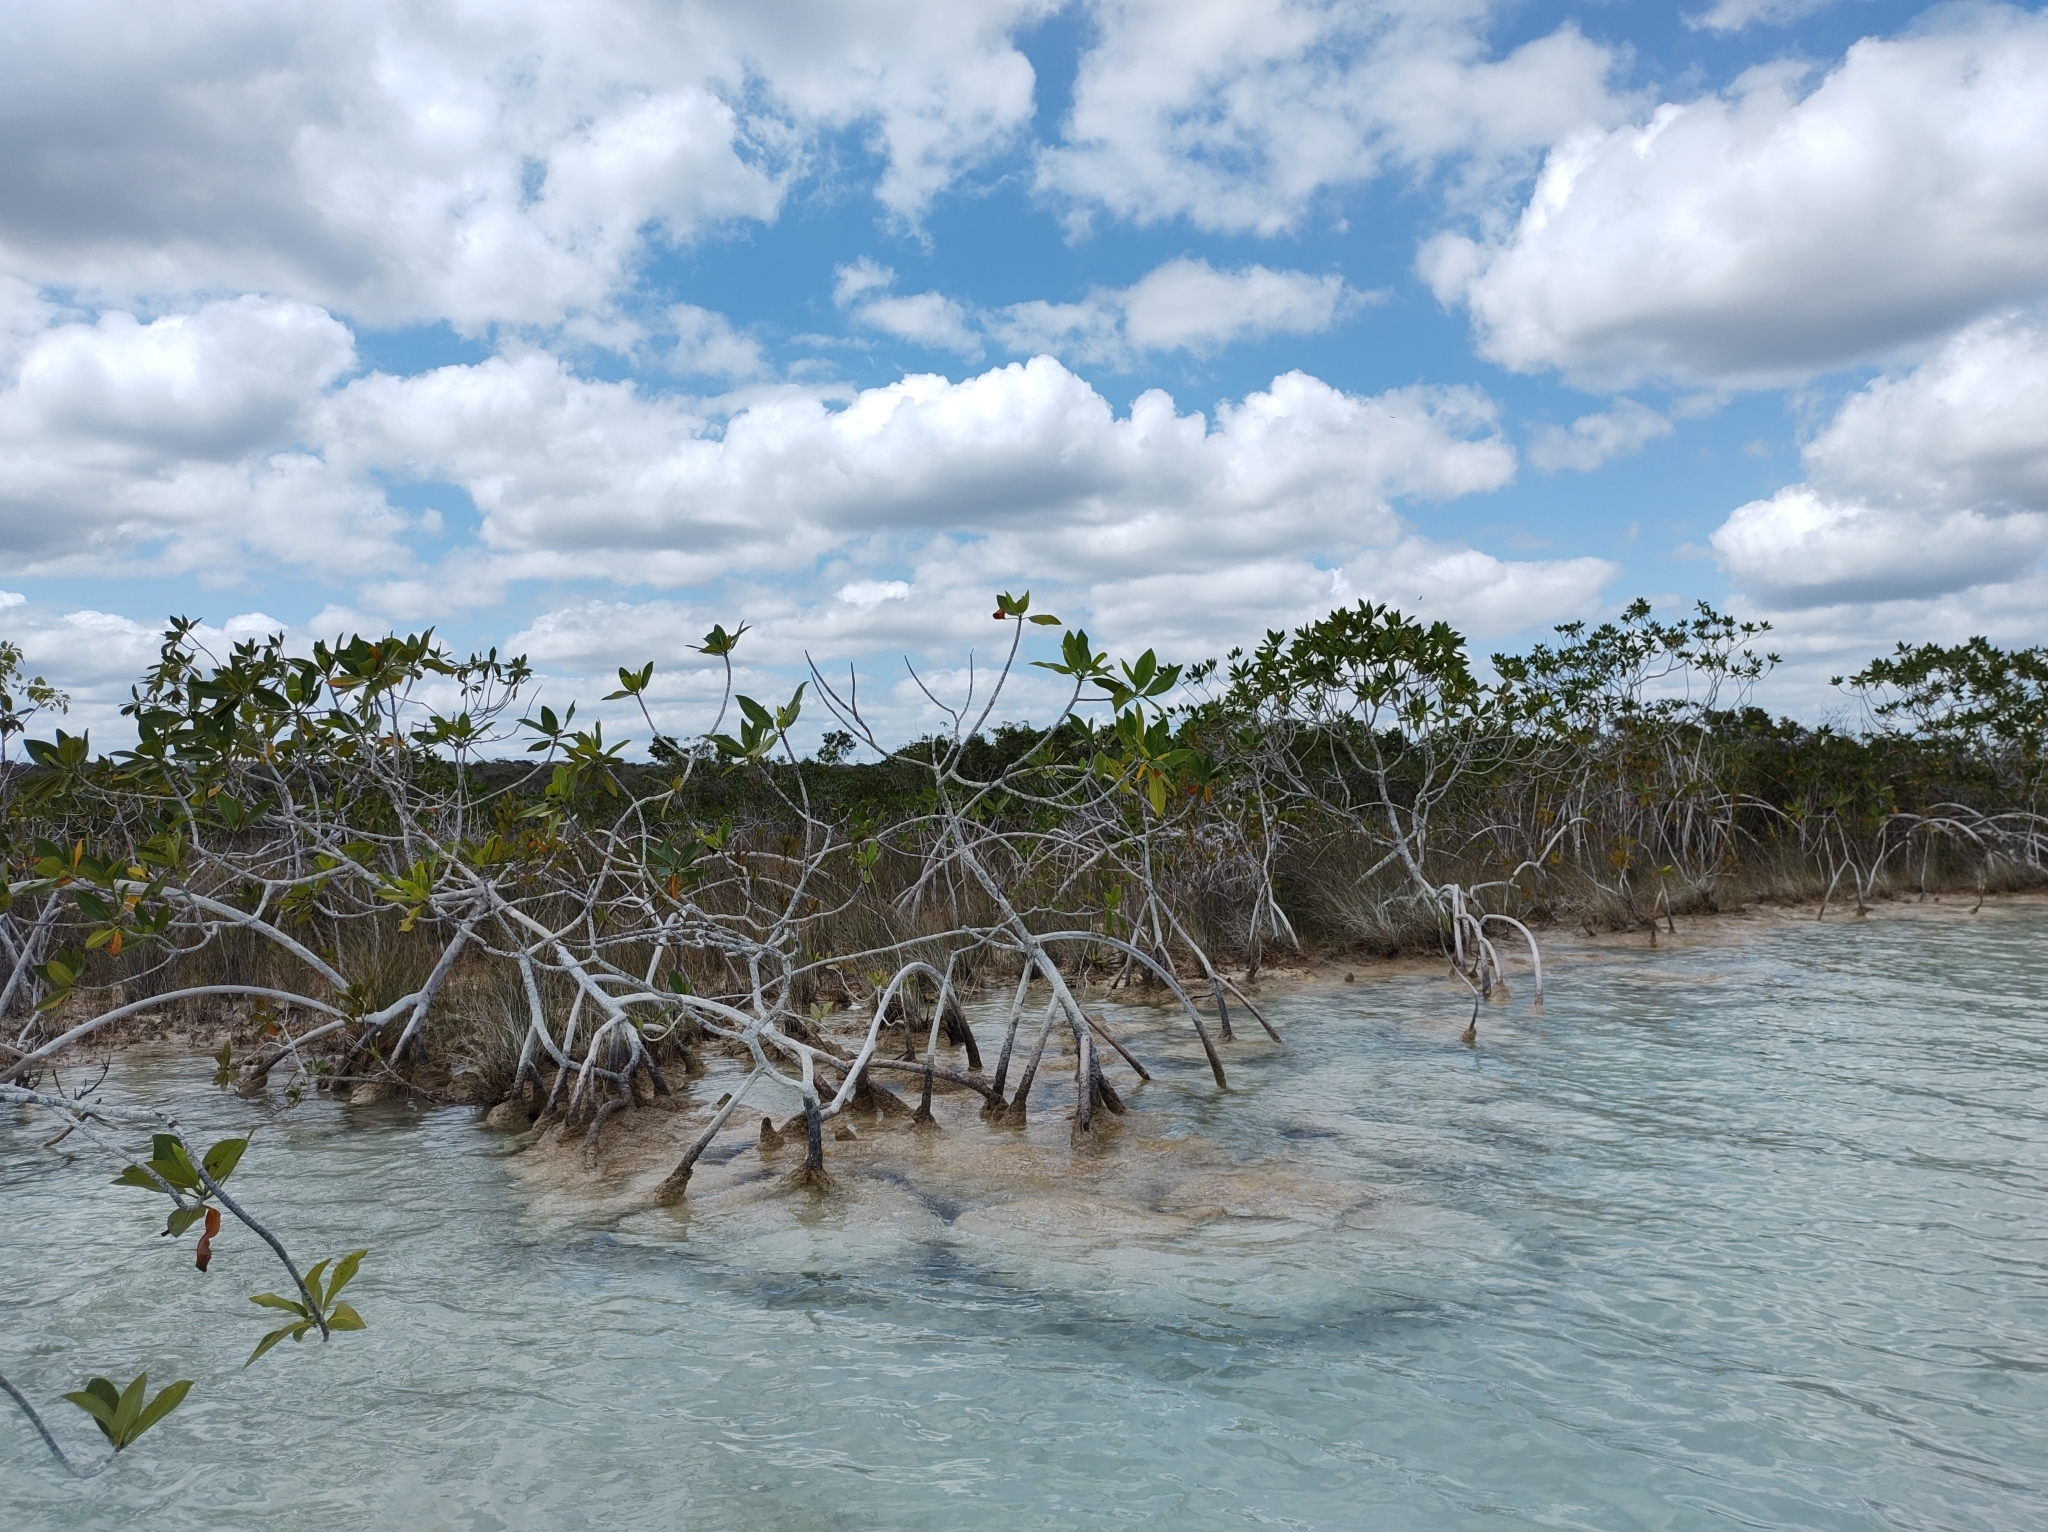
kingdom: Plantae
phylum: Tracheophyta
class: Magnoliopsida
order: Malpighiales
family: Rhizophoraceae
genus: Rhizophora
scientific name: Rhizophora mangle
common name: Red mangrove
